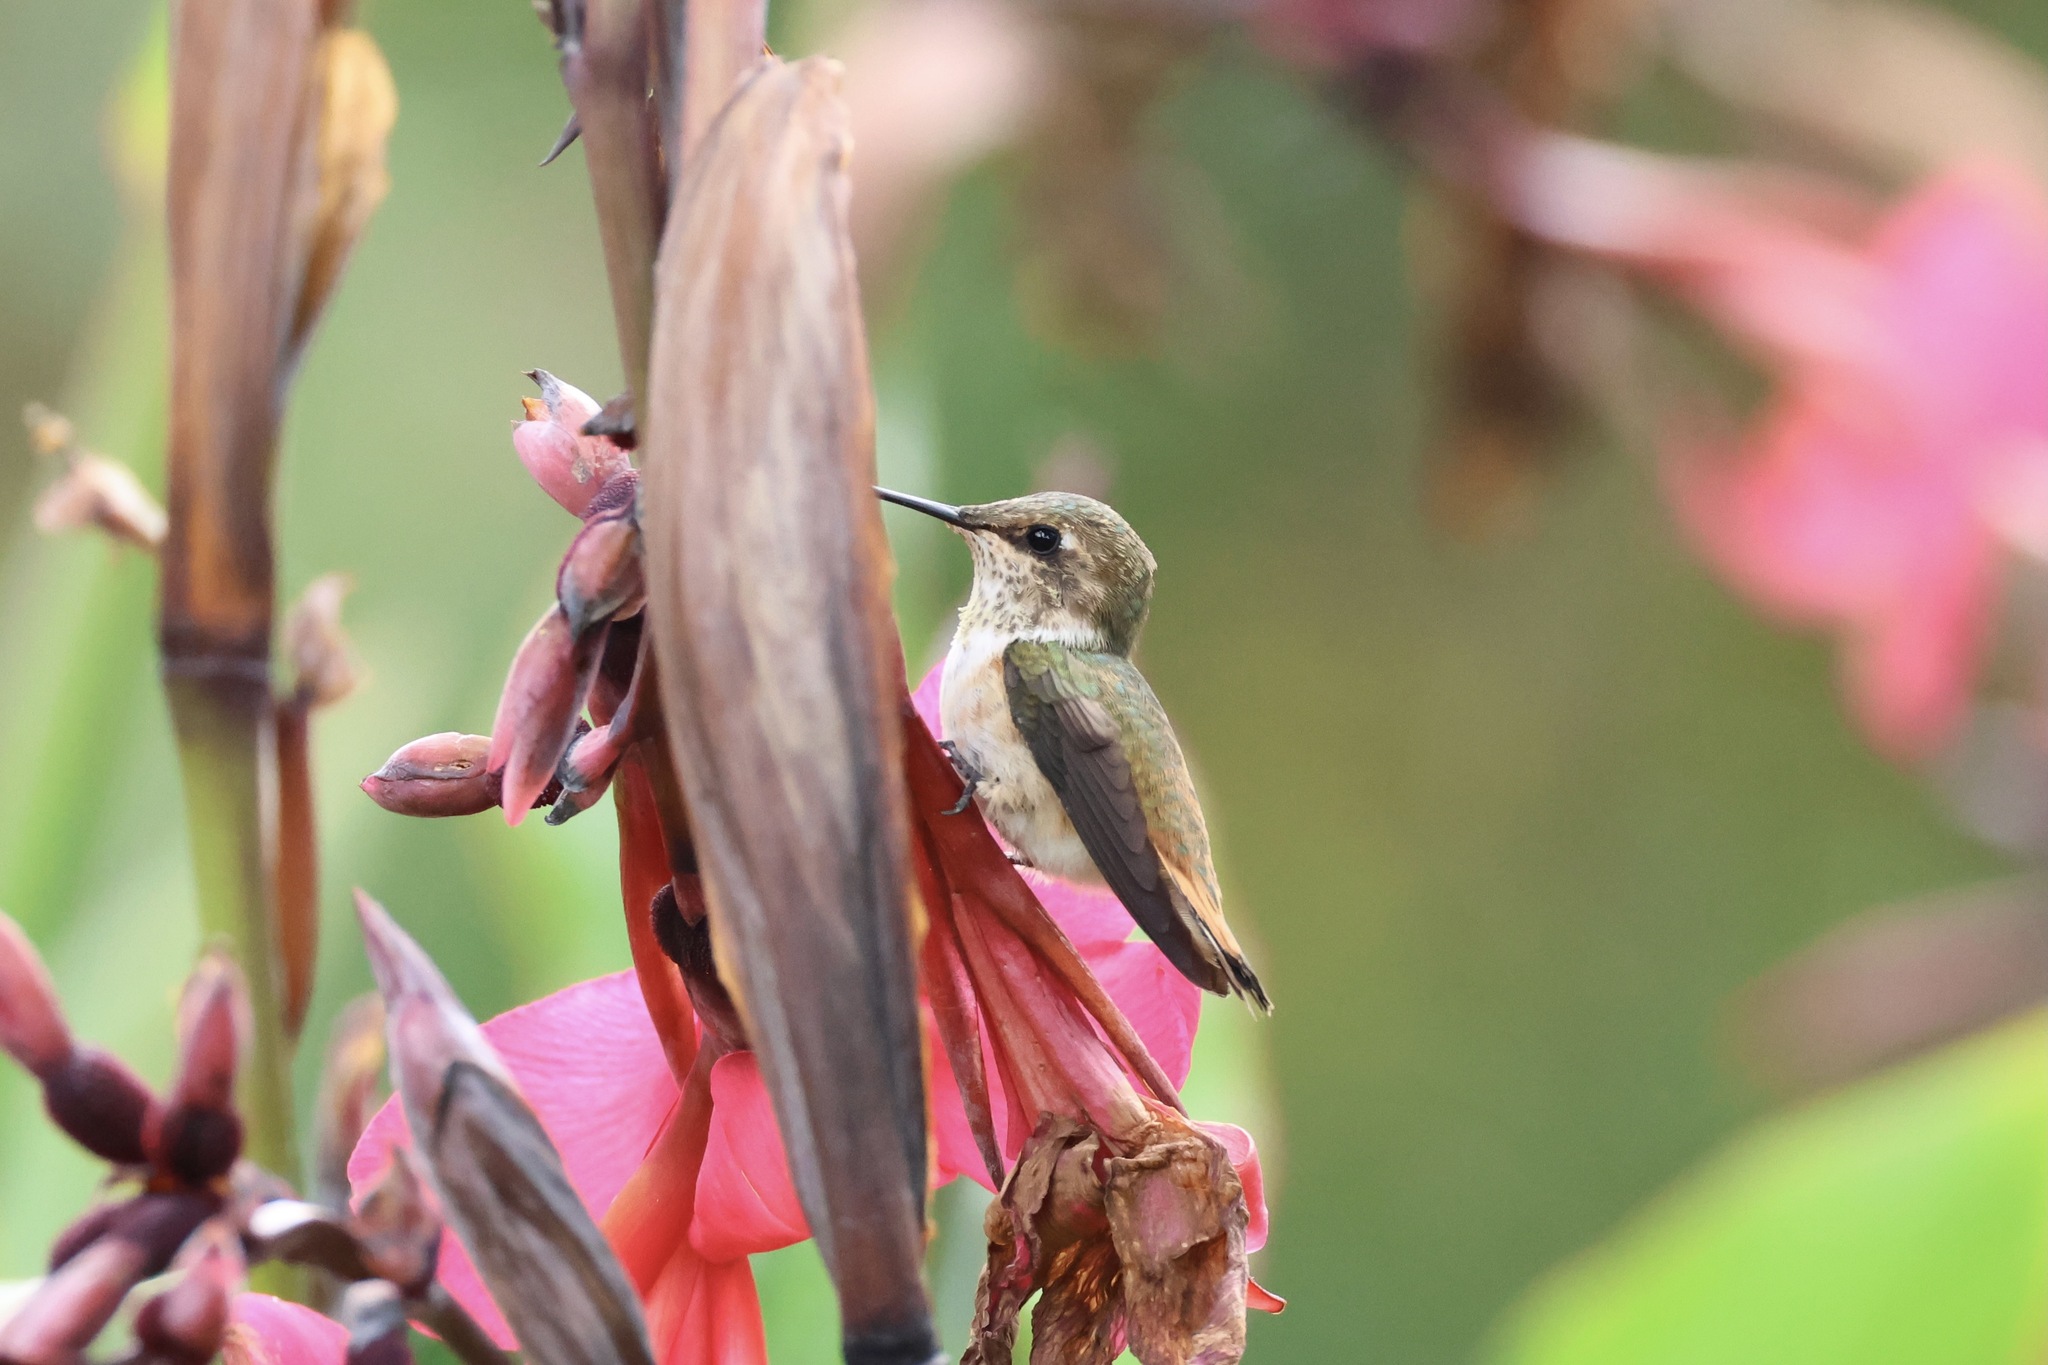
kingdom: Animalia
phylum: Chordata
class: Aves
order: Apodiformes
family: Trochilidae
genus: Selasphorus
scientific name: Selasphorus scintilla
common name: Scintillant hummingbird
